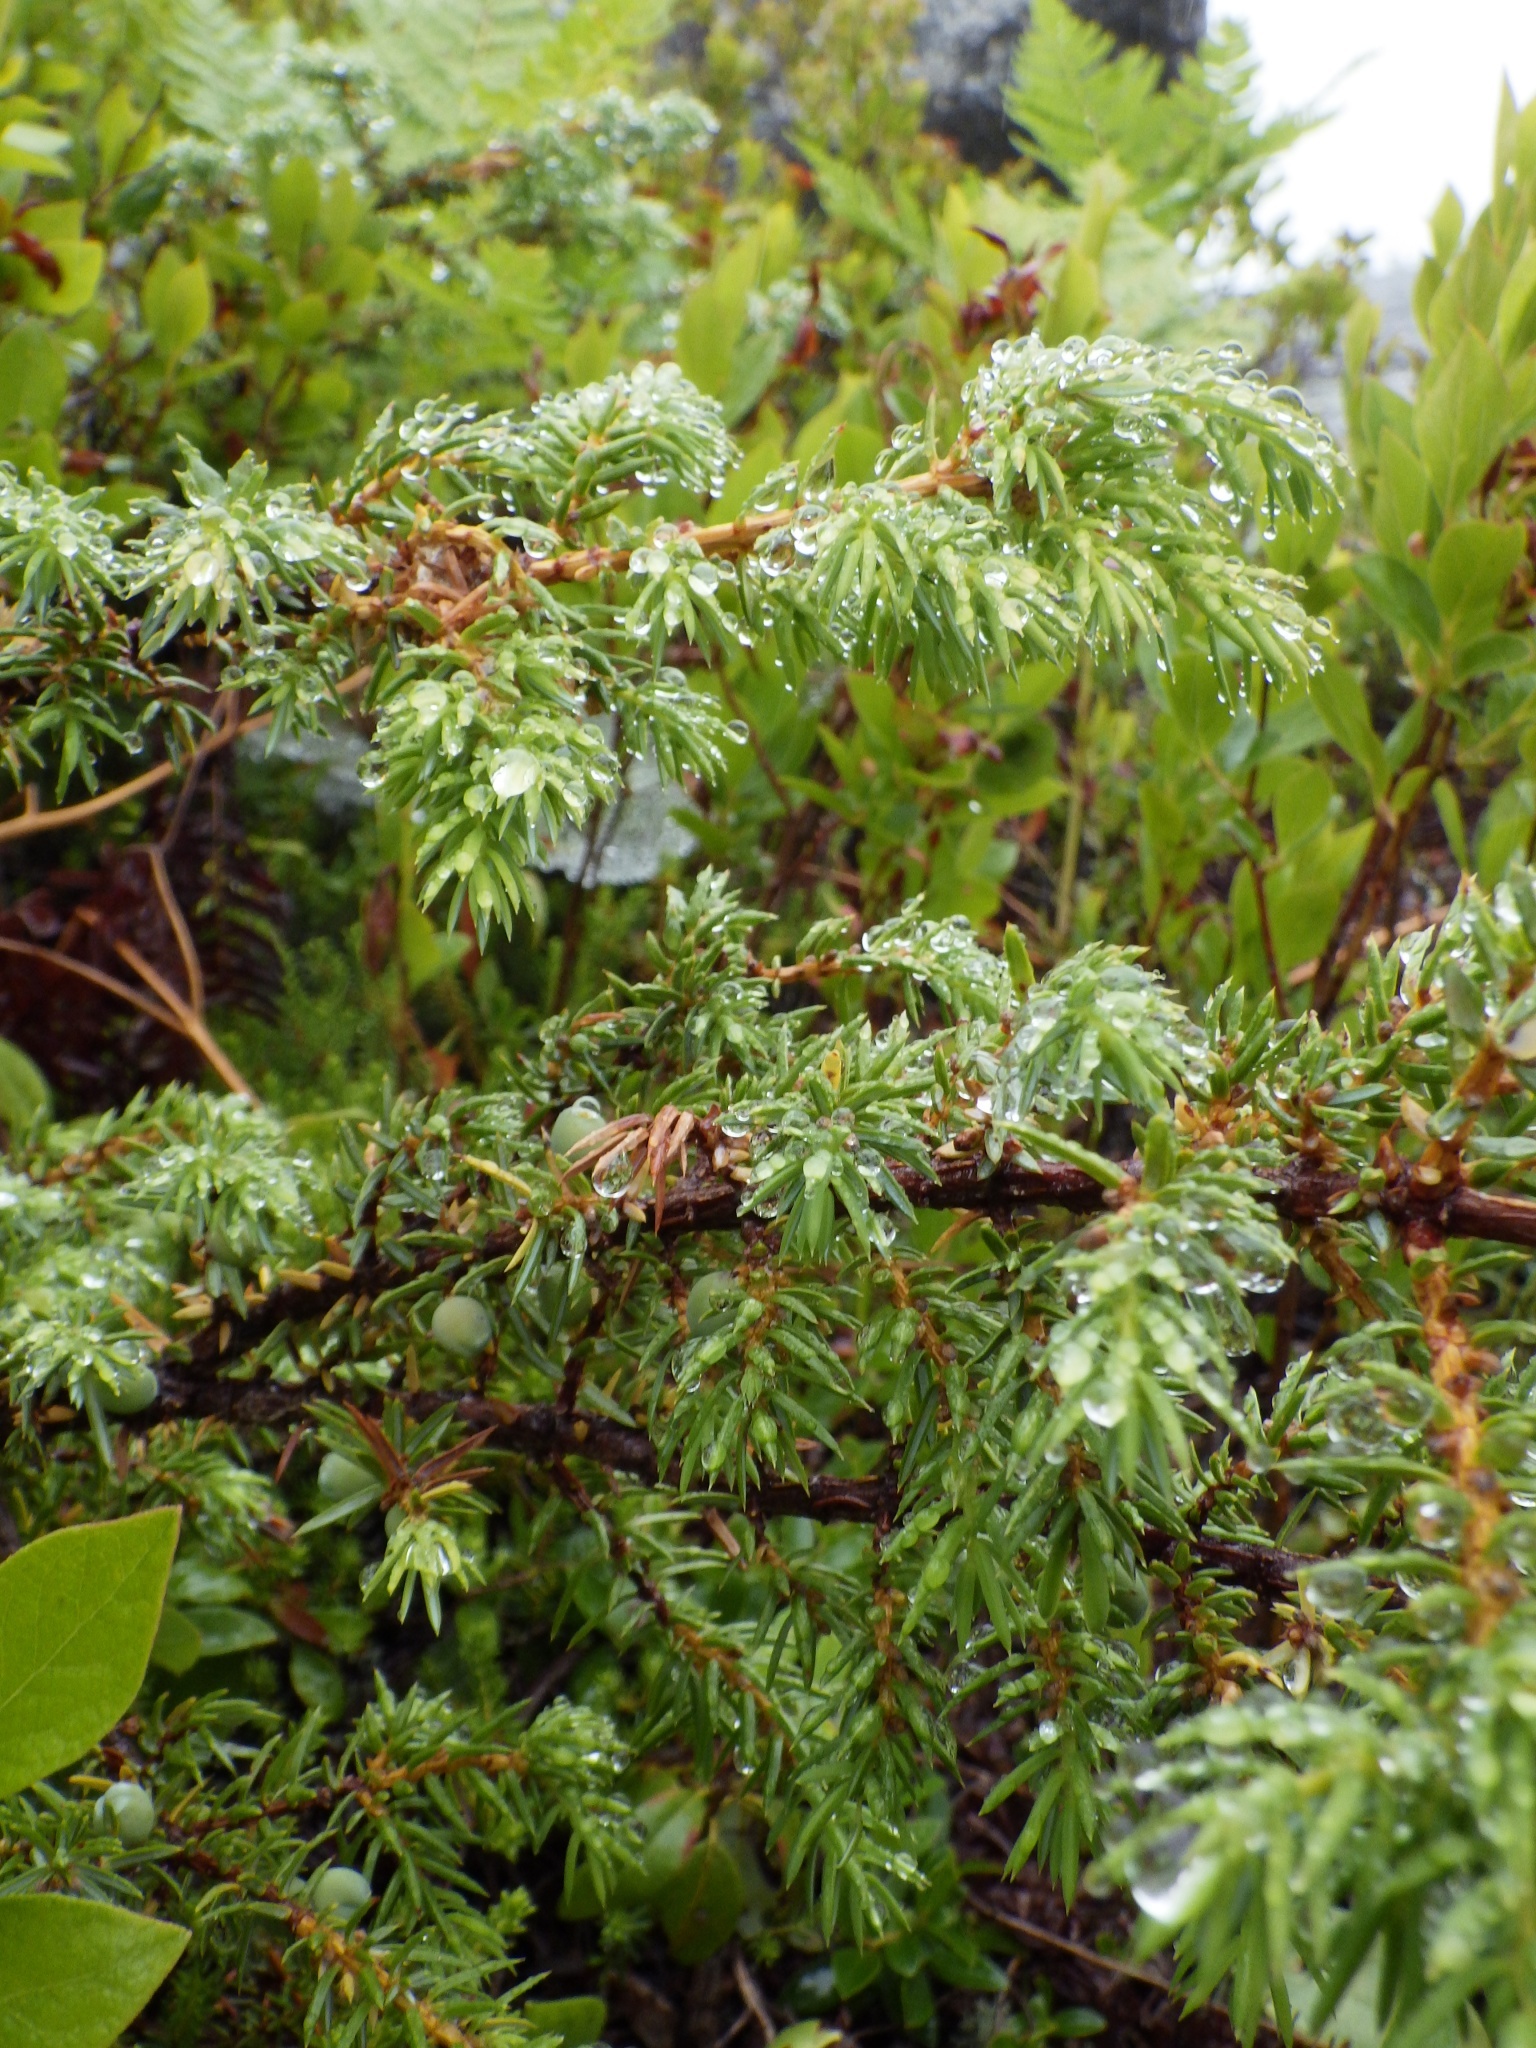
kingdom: Plantae
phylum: Tracheophyta
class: Pinopsida
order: Pinales
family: Cupressaceae
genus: Juniperus
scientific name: Juniperus communis
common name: Common juniper
